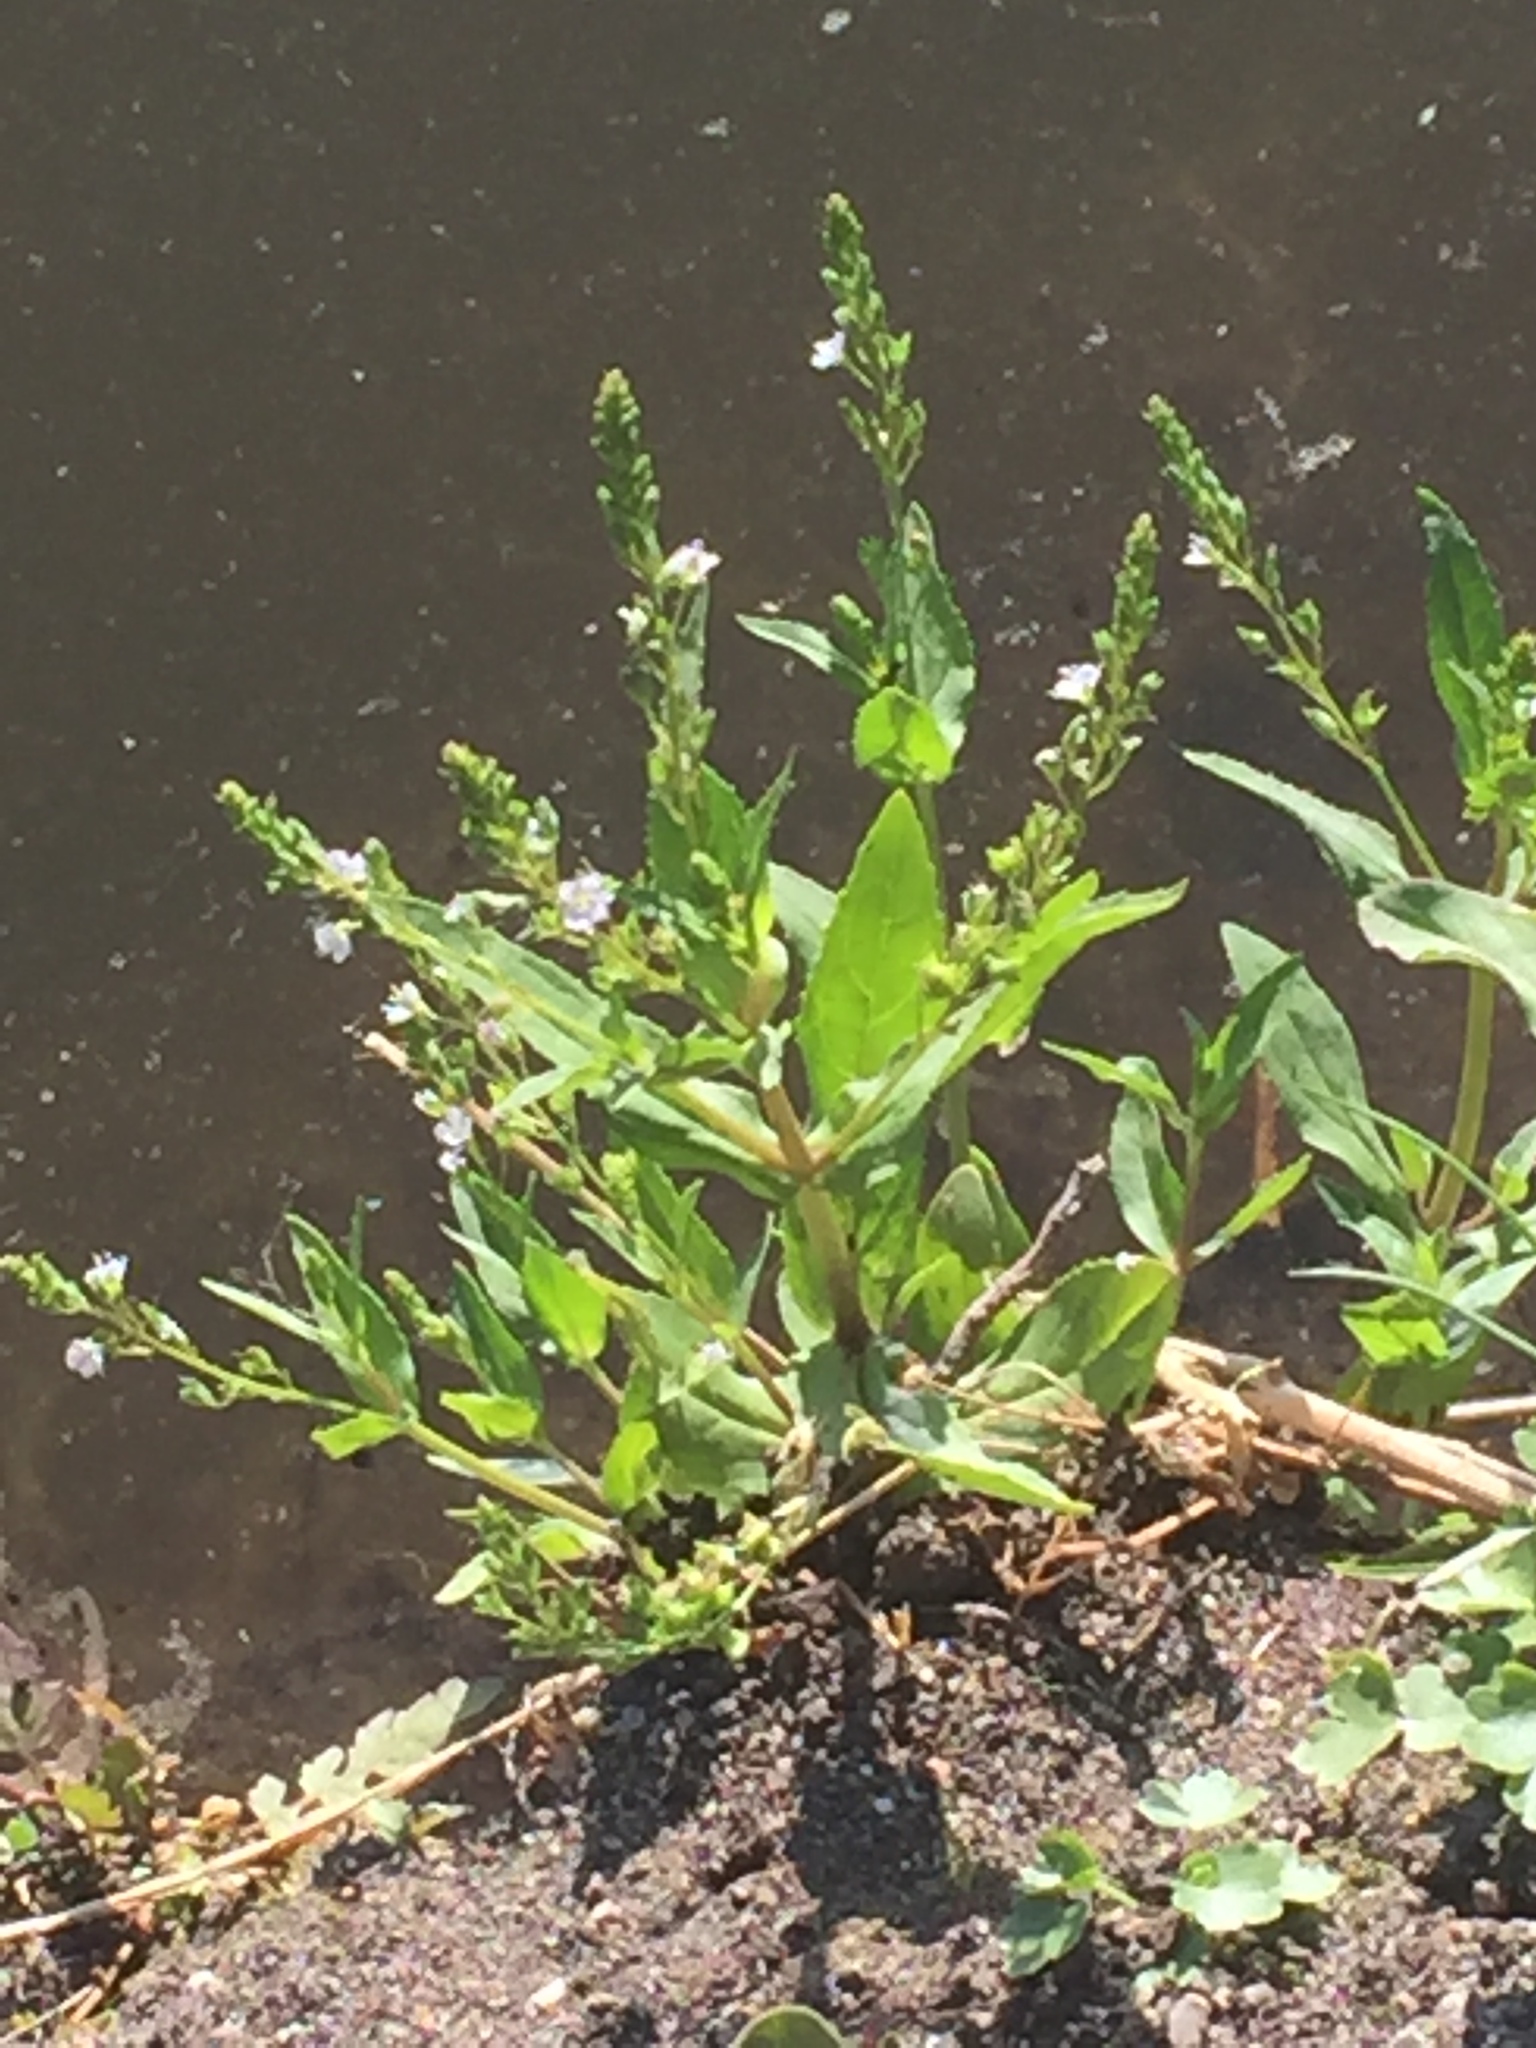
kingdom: Plantae
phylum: Tracheophyta
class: Magnoliopsida
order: Lamiales
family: Plantaginaceae
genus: Veronica
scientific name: Veronica anagallis-aquatica
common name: Water speedwell
